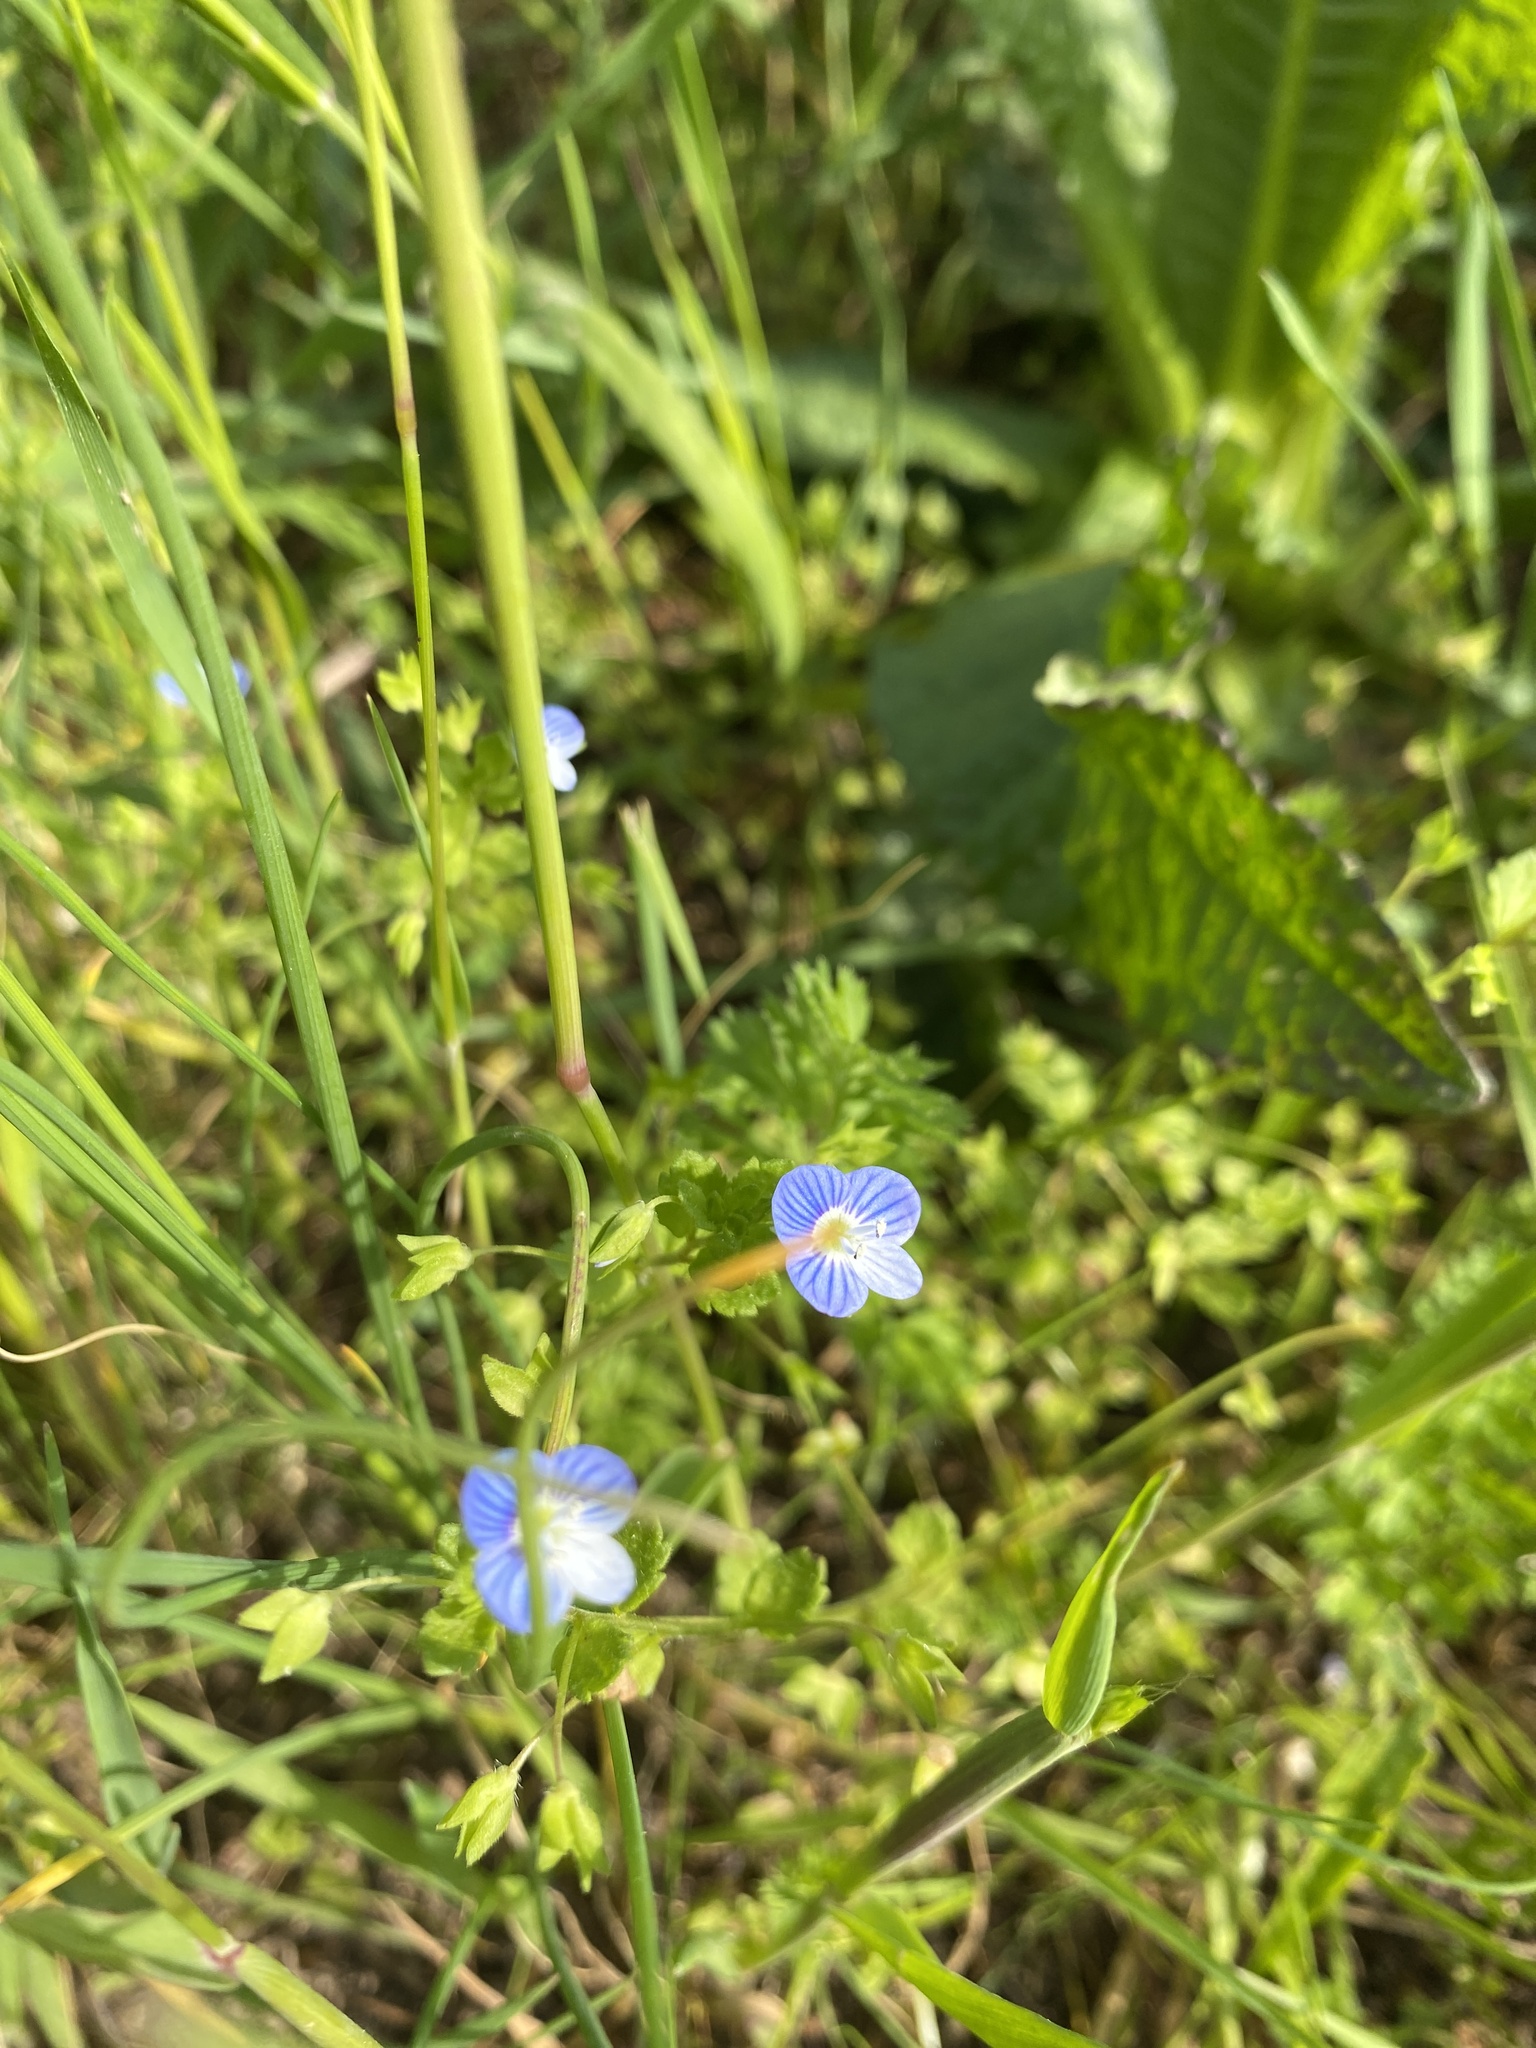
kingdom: Plantae
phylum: Tracheophyta
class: Magnoliopsida
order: Lamiales
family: Plantaginaceae
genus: Veronica
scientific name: Veronica persica
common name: Common field-speedwell
